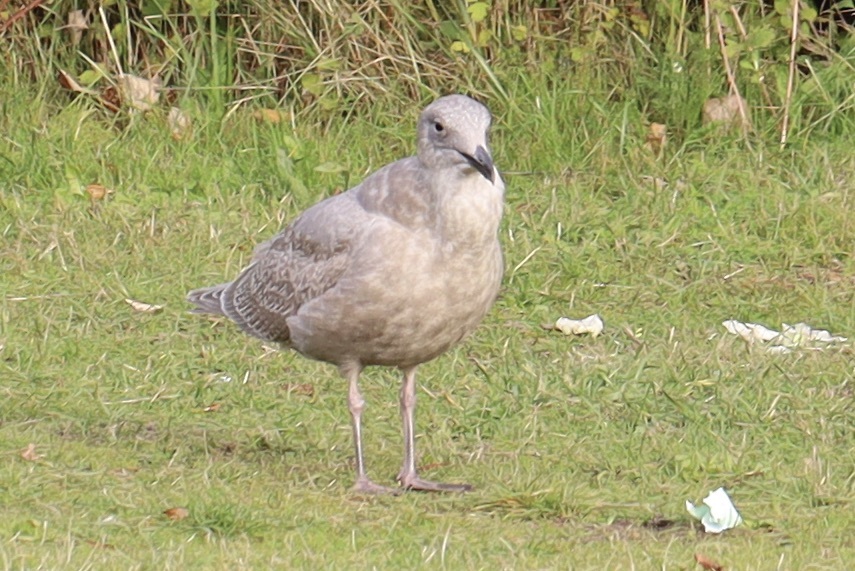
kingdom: Animalia
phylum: Chordata
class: Aves
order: Charadriiformes
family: Laridae
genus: Larus
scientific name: Larus glaucescens
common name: Glaucous-winged gull
